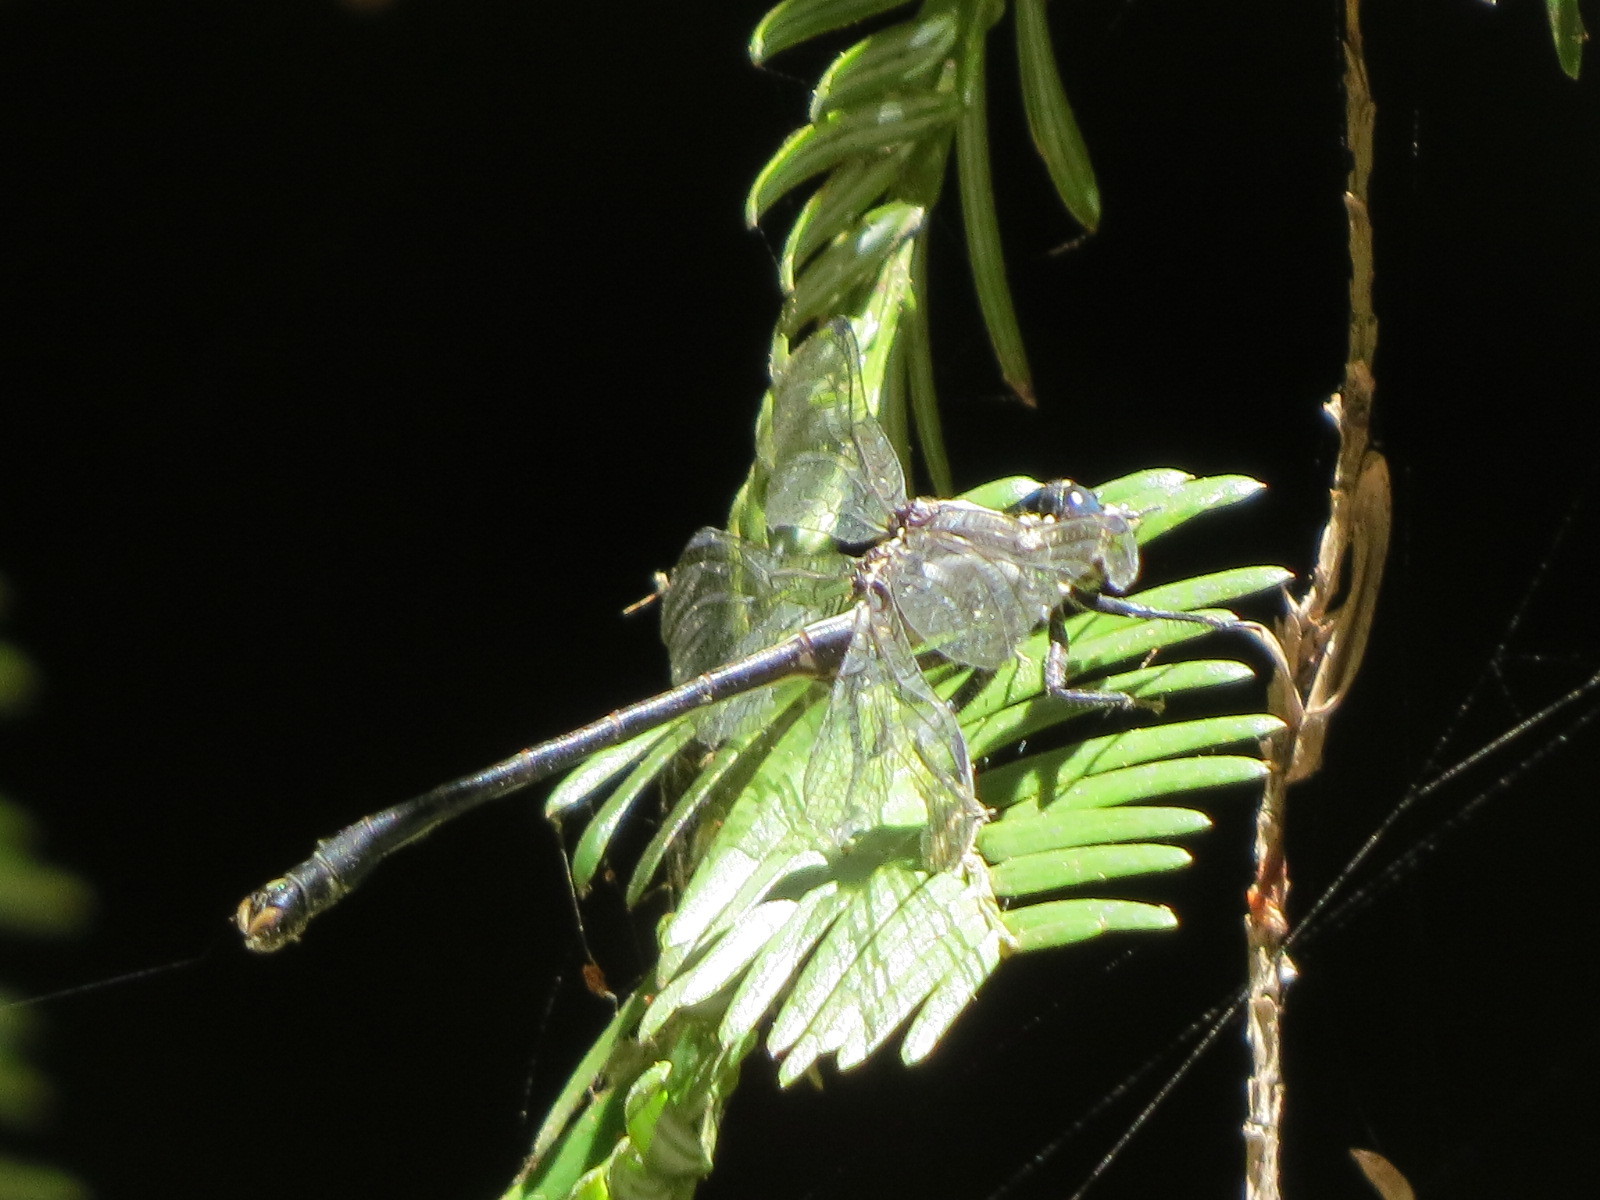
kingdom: Animalia
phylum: Arthropoda
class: Insecta
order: Odonata
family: Gomphidae
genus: Octogomphus
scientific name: Octogomphus specularis
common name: Grappletail
